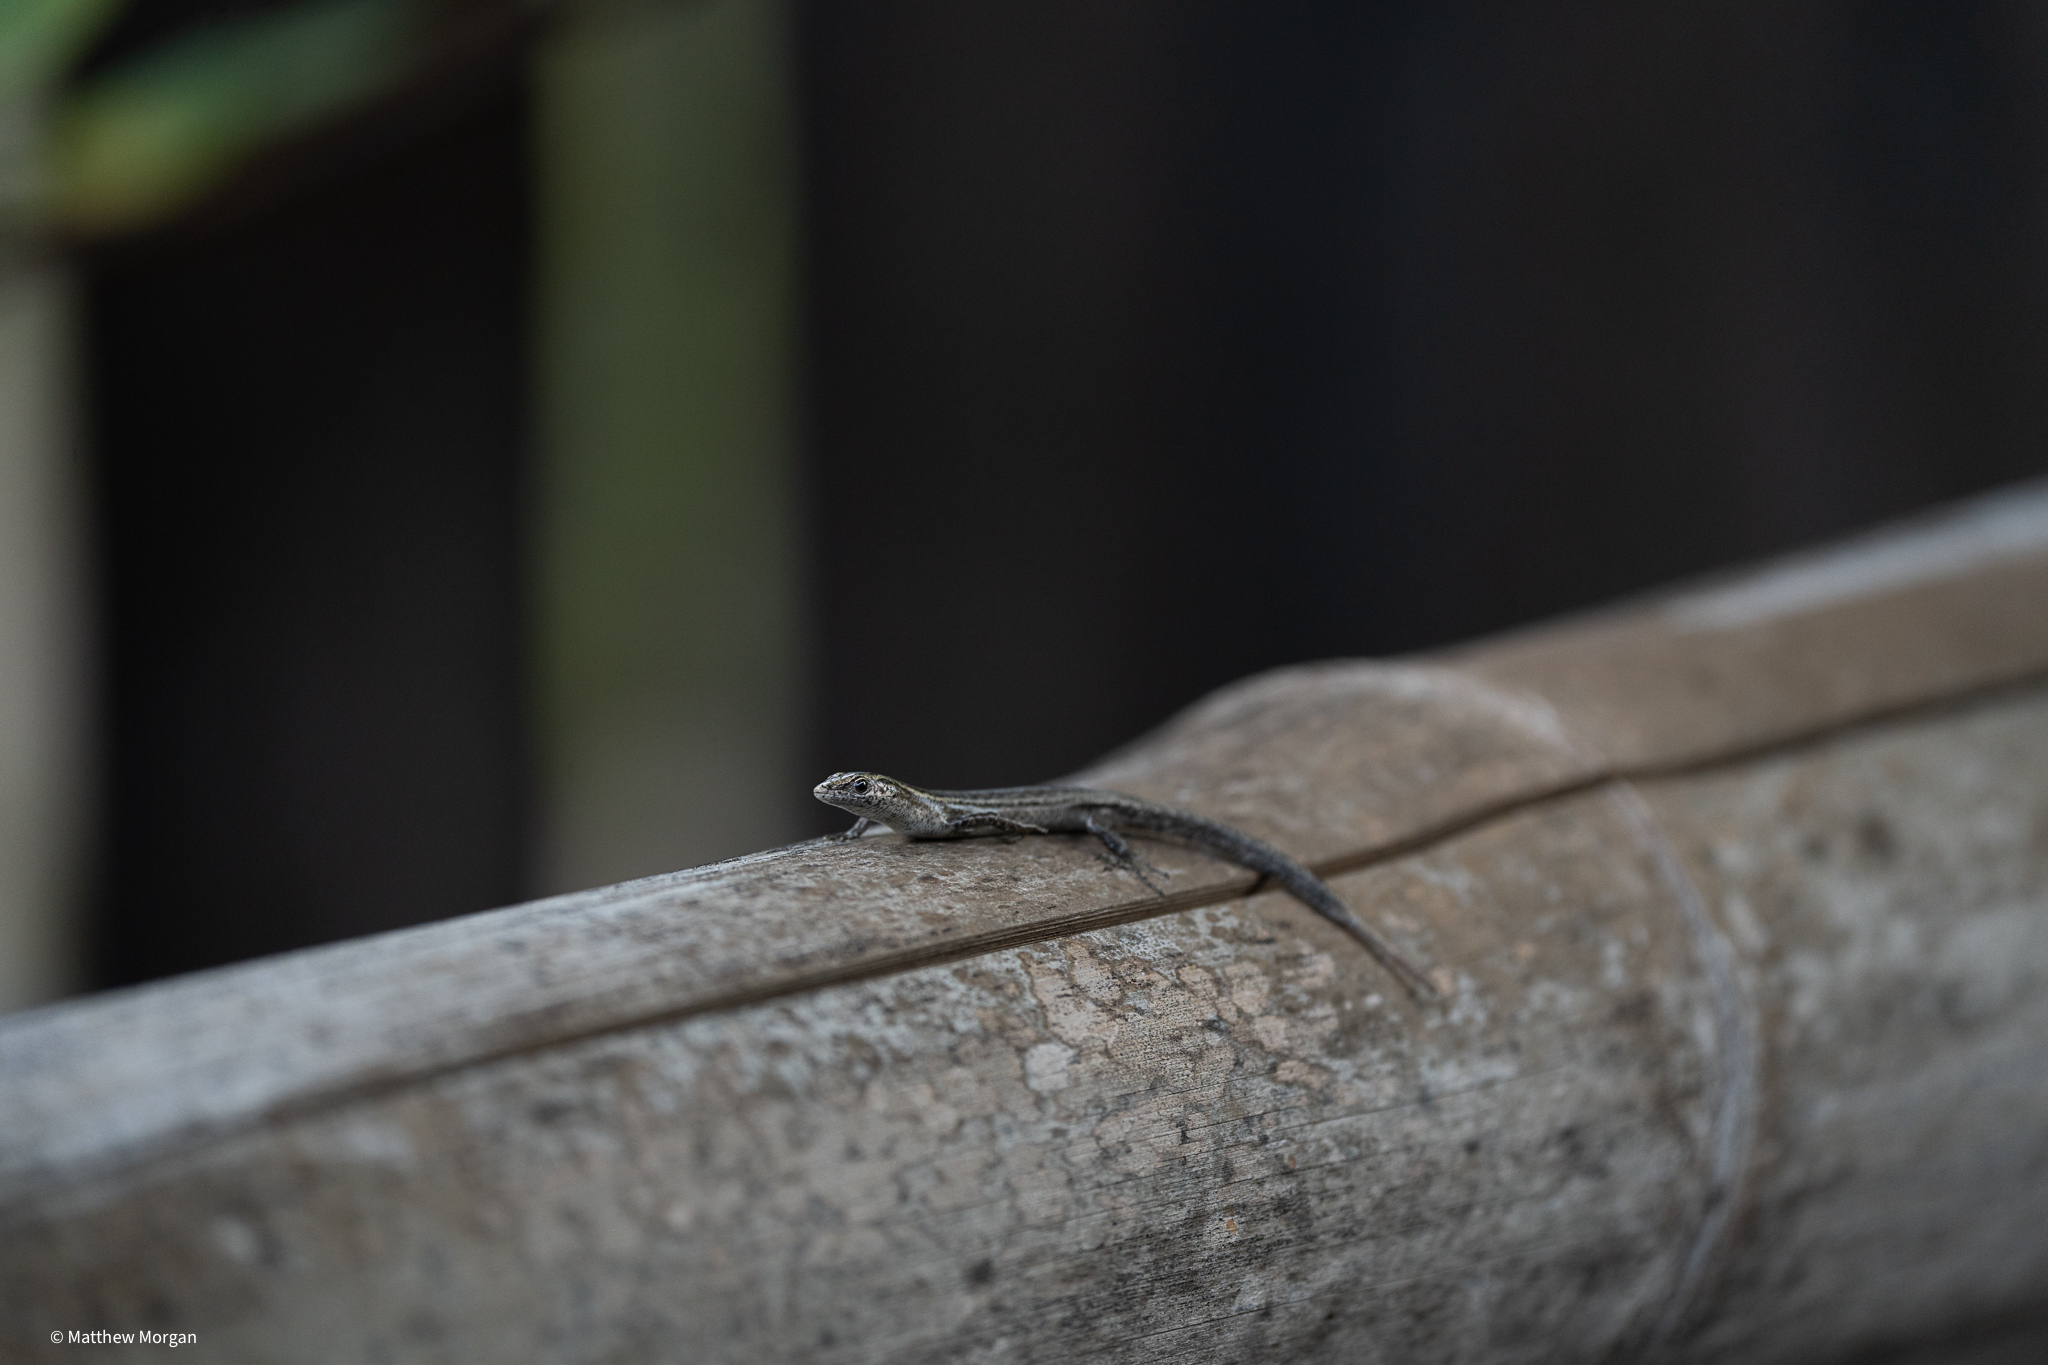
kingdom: Animalia
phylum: Chordata
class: Squamata
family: Scincidae
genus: Cryptoblepharus
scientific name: Cryptoblepharus boutonii
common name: Snake-eyed skink
